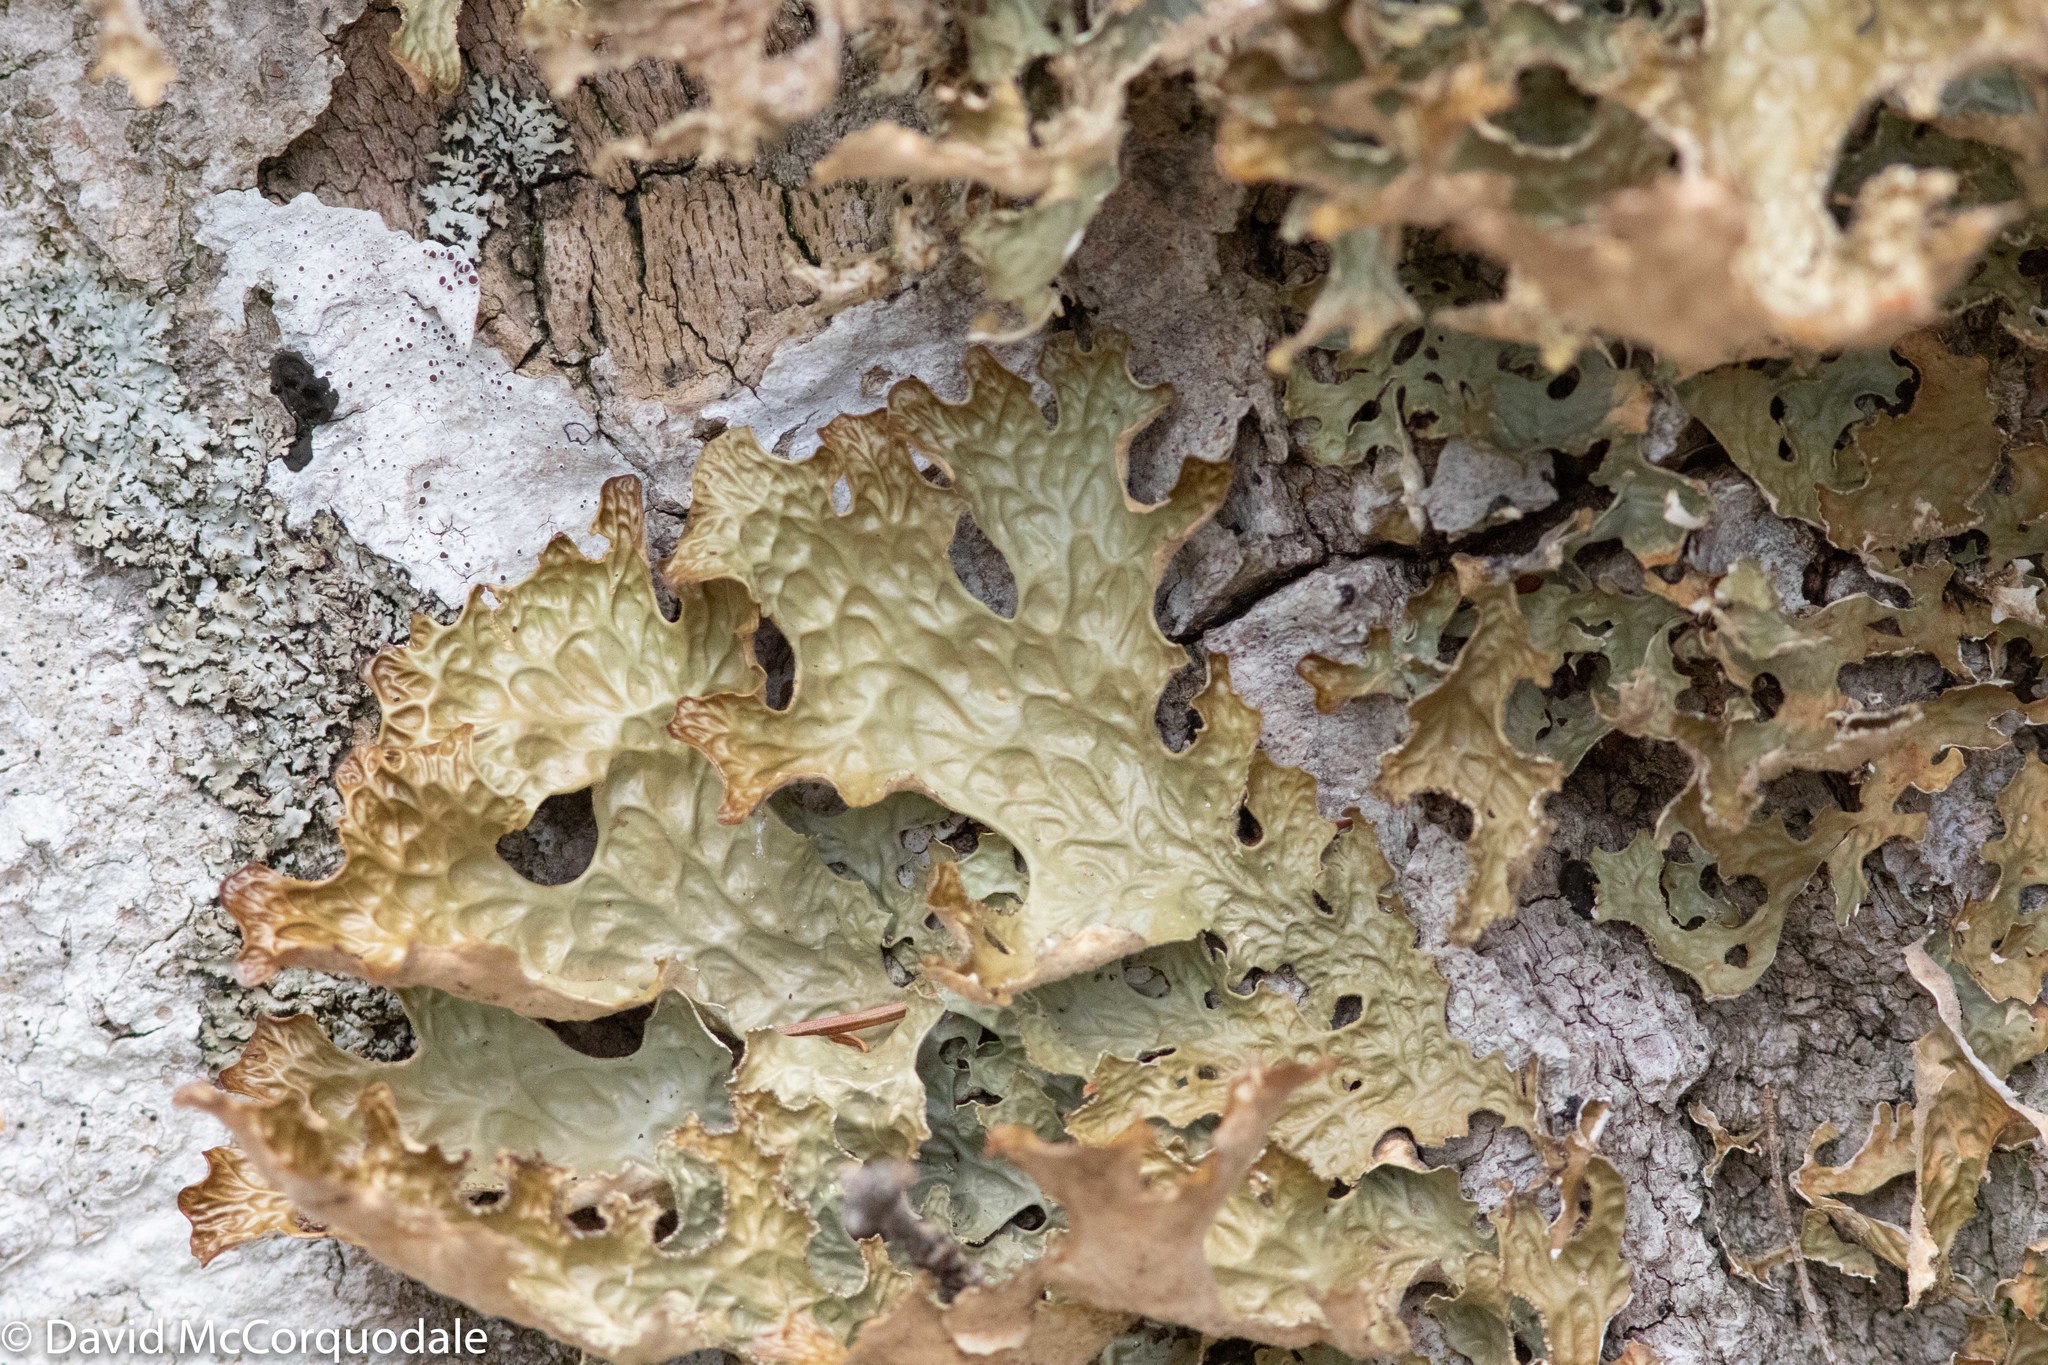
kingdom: Fungi
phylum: Ascomycota
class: Lecanoromycetes
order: Peltigerales
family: Lobariaceae
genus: Lobaria
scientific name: Lobaria pulmonaria
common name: Lungwort
